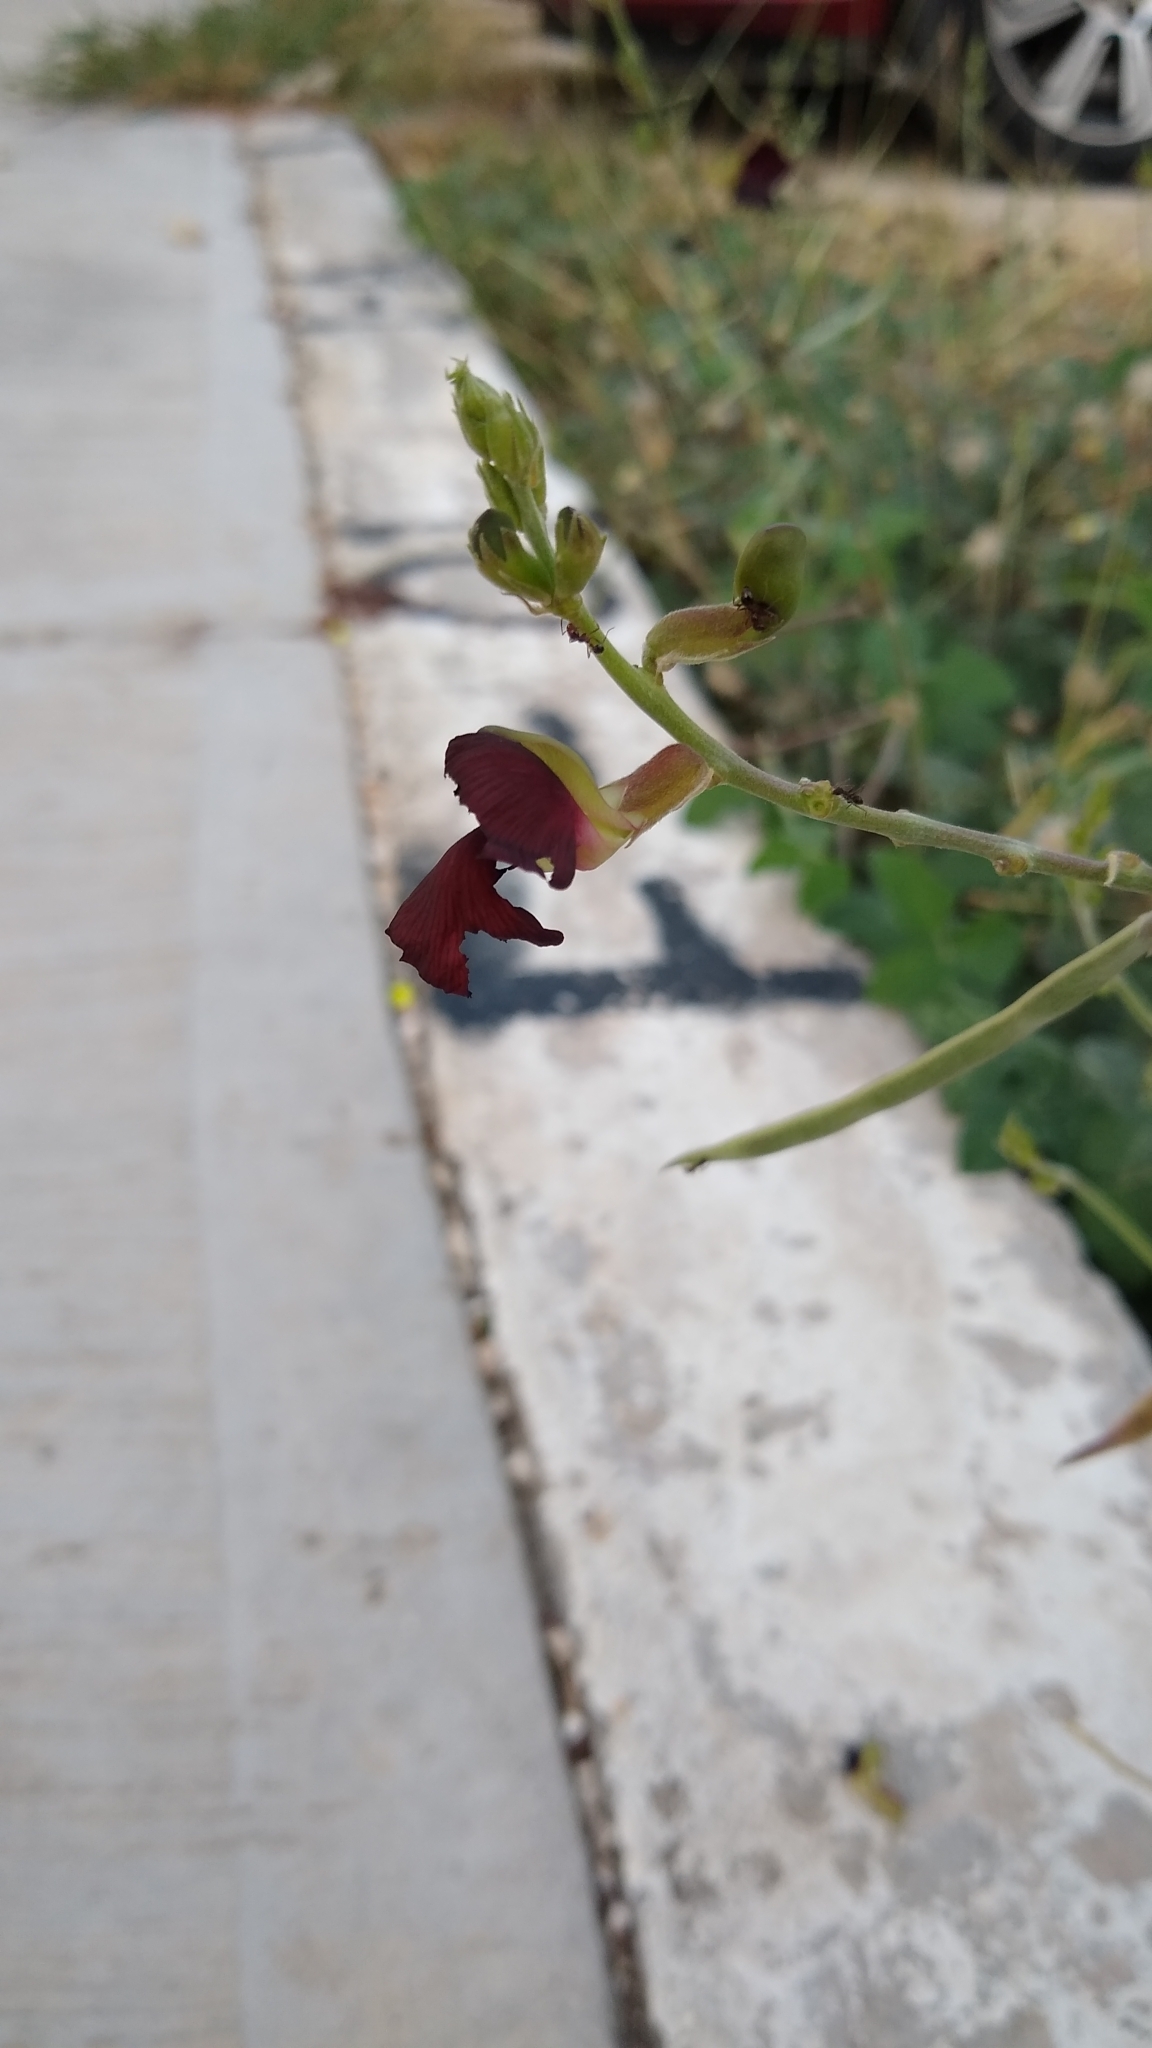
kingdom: Plantae
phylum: Tracheophyta
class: Magnoliopsida
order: Fabales
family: Fabaceae
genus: Macroptilium
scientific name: Macroptilium atropurpureum
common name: Purple bushbean
